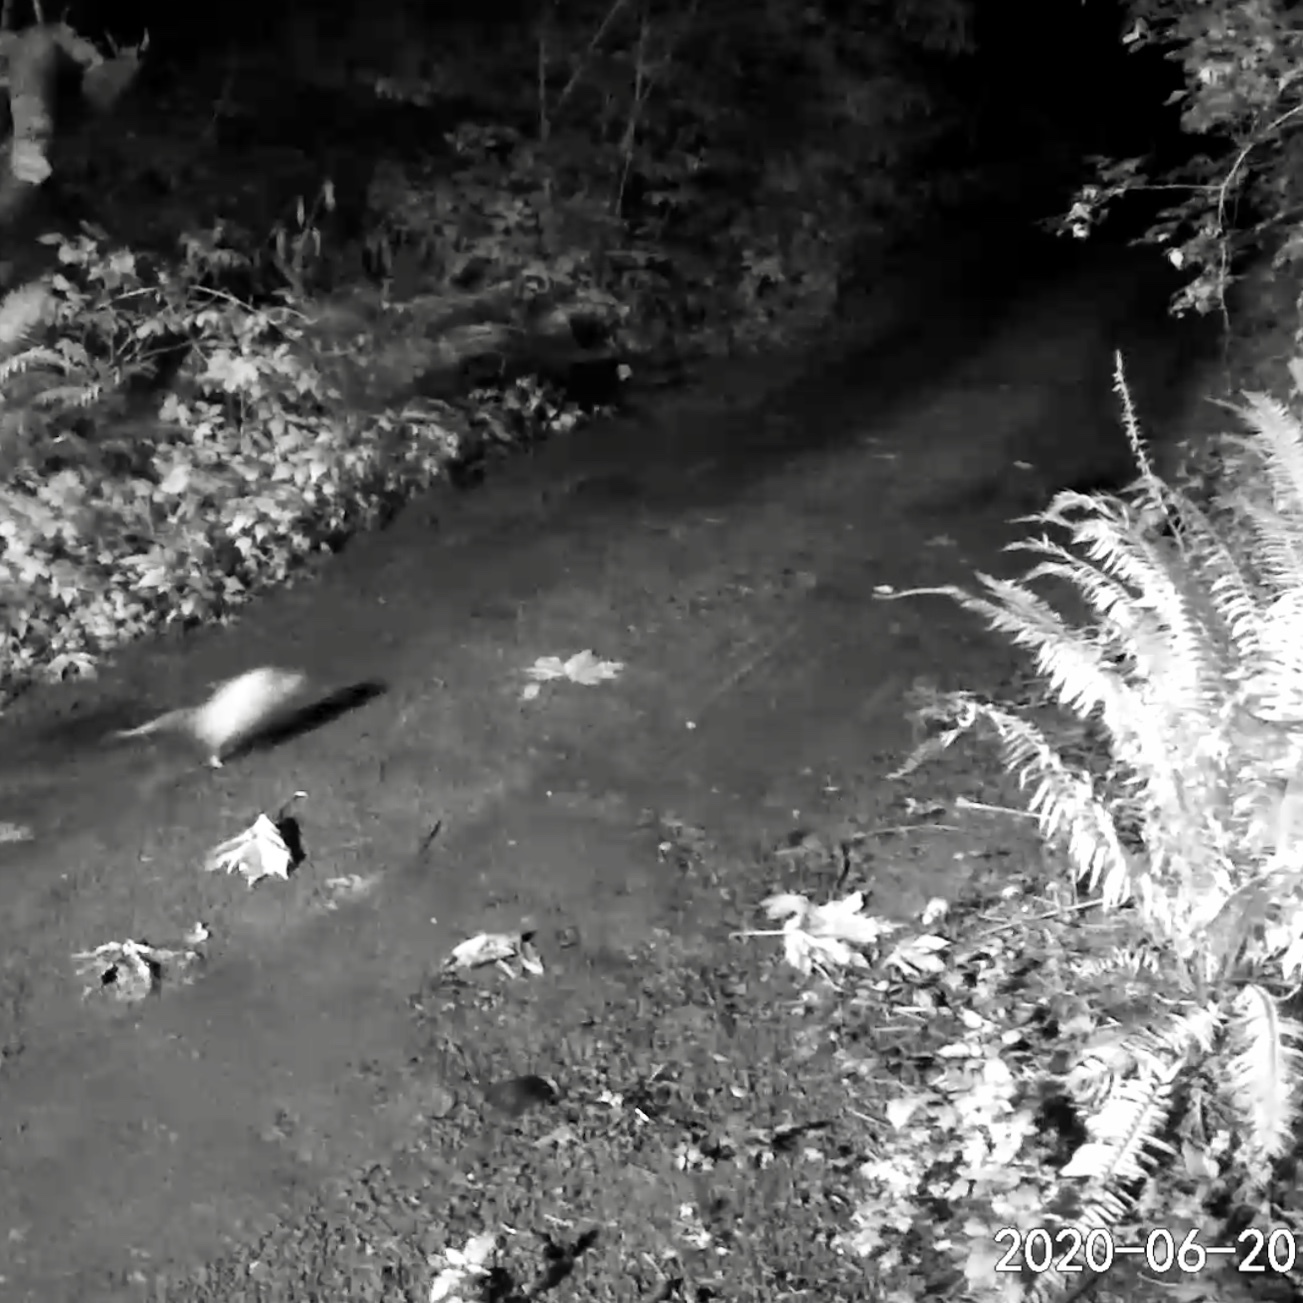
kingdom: Animalia
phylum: Chordata
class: Mammalia
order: Didelphimorphia
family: Didelphidae
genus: Didelphis
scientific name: Didelphis virginiana
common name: Virginia opossum
